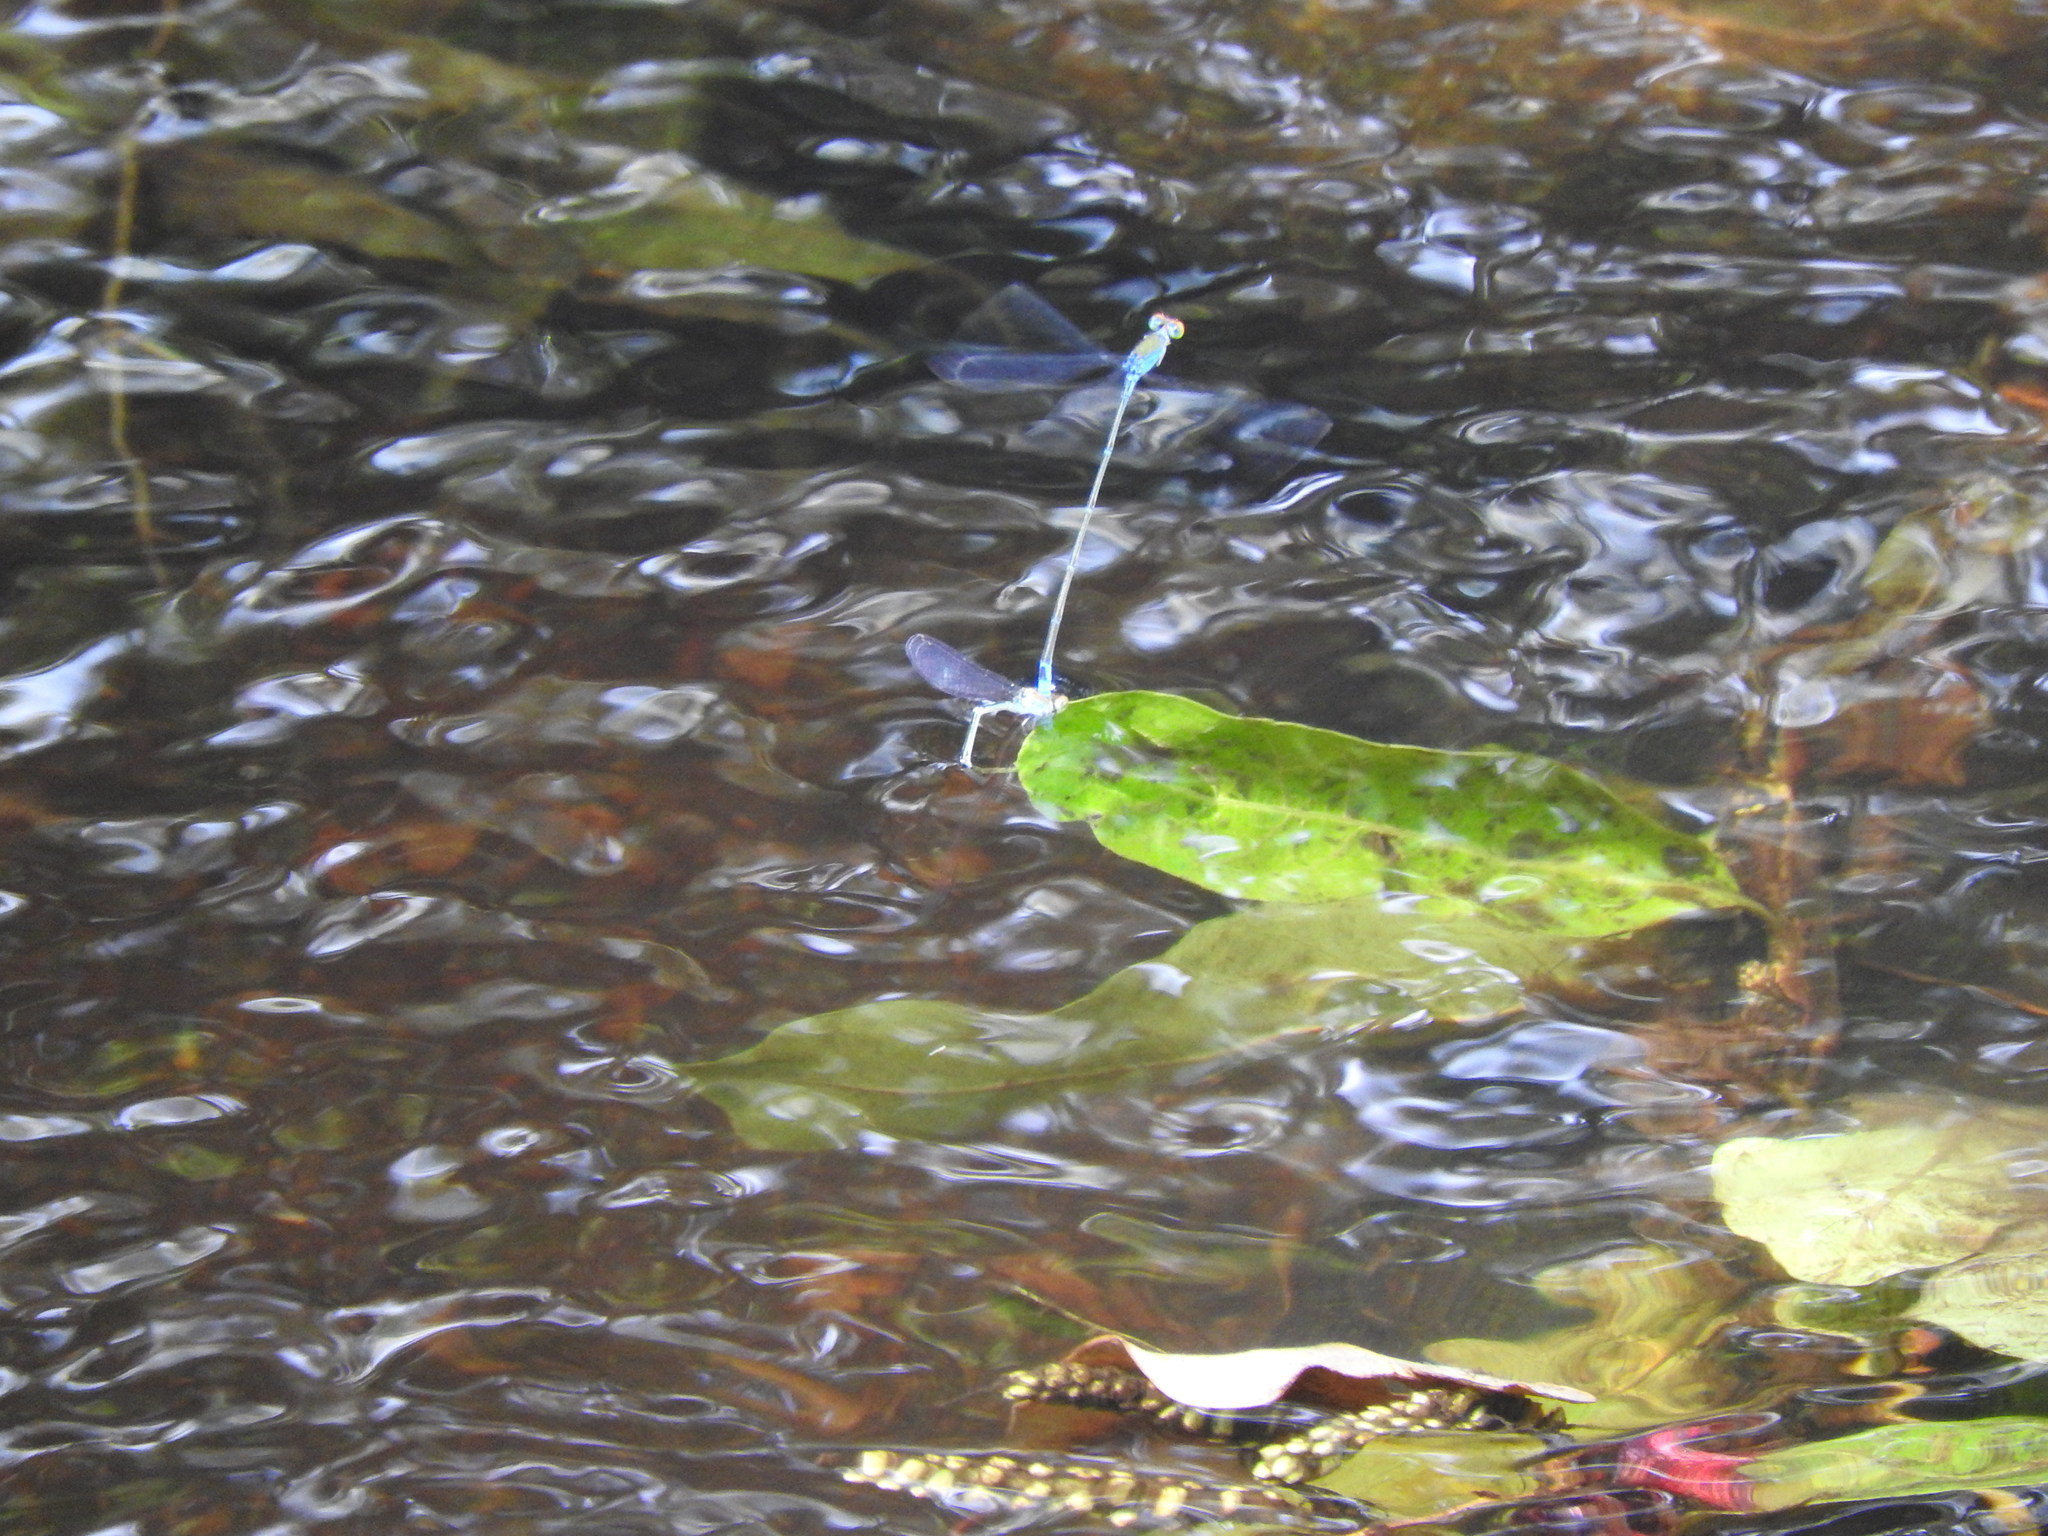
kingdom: Animalia
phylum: Arthropoda
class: Insecta
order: Odonata
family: Coenagrionidae
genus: Pseudagrion
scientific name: Pseudagrion rubriceps
